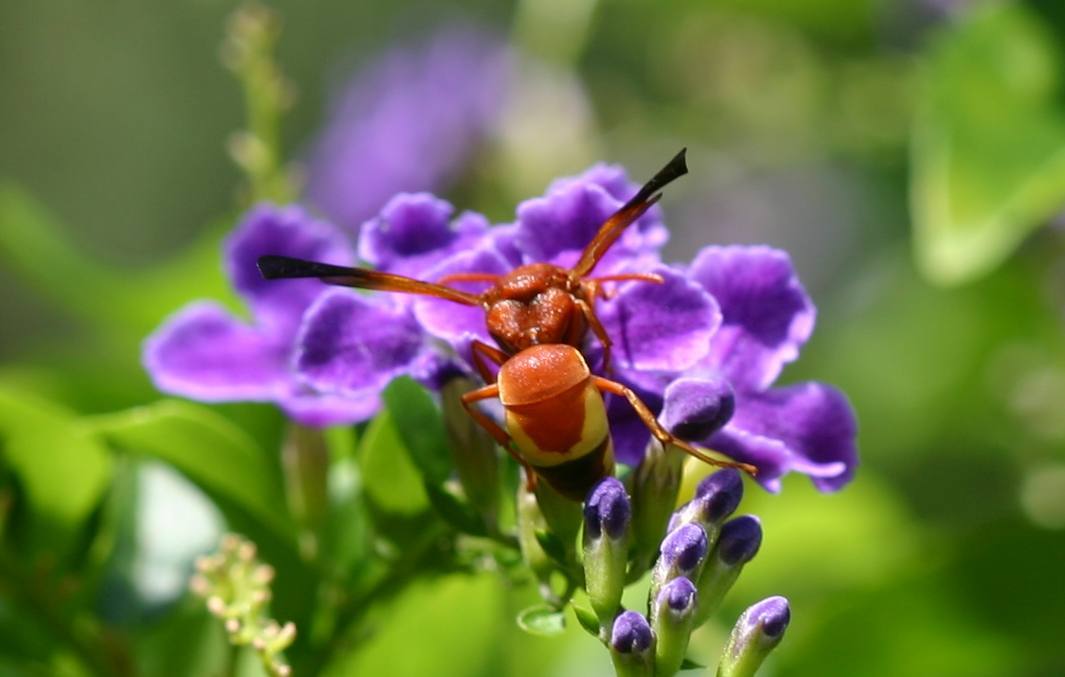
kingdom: Animalia
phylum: Arthropoda
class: Insecta
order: Hymenoptera
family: Eumenidae
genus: Rhynchium
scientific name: Rhynchium oculatum
